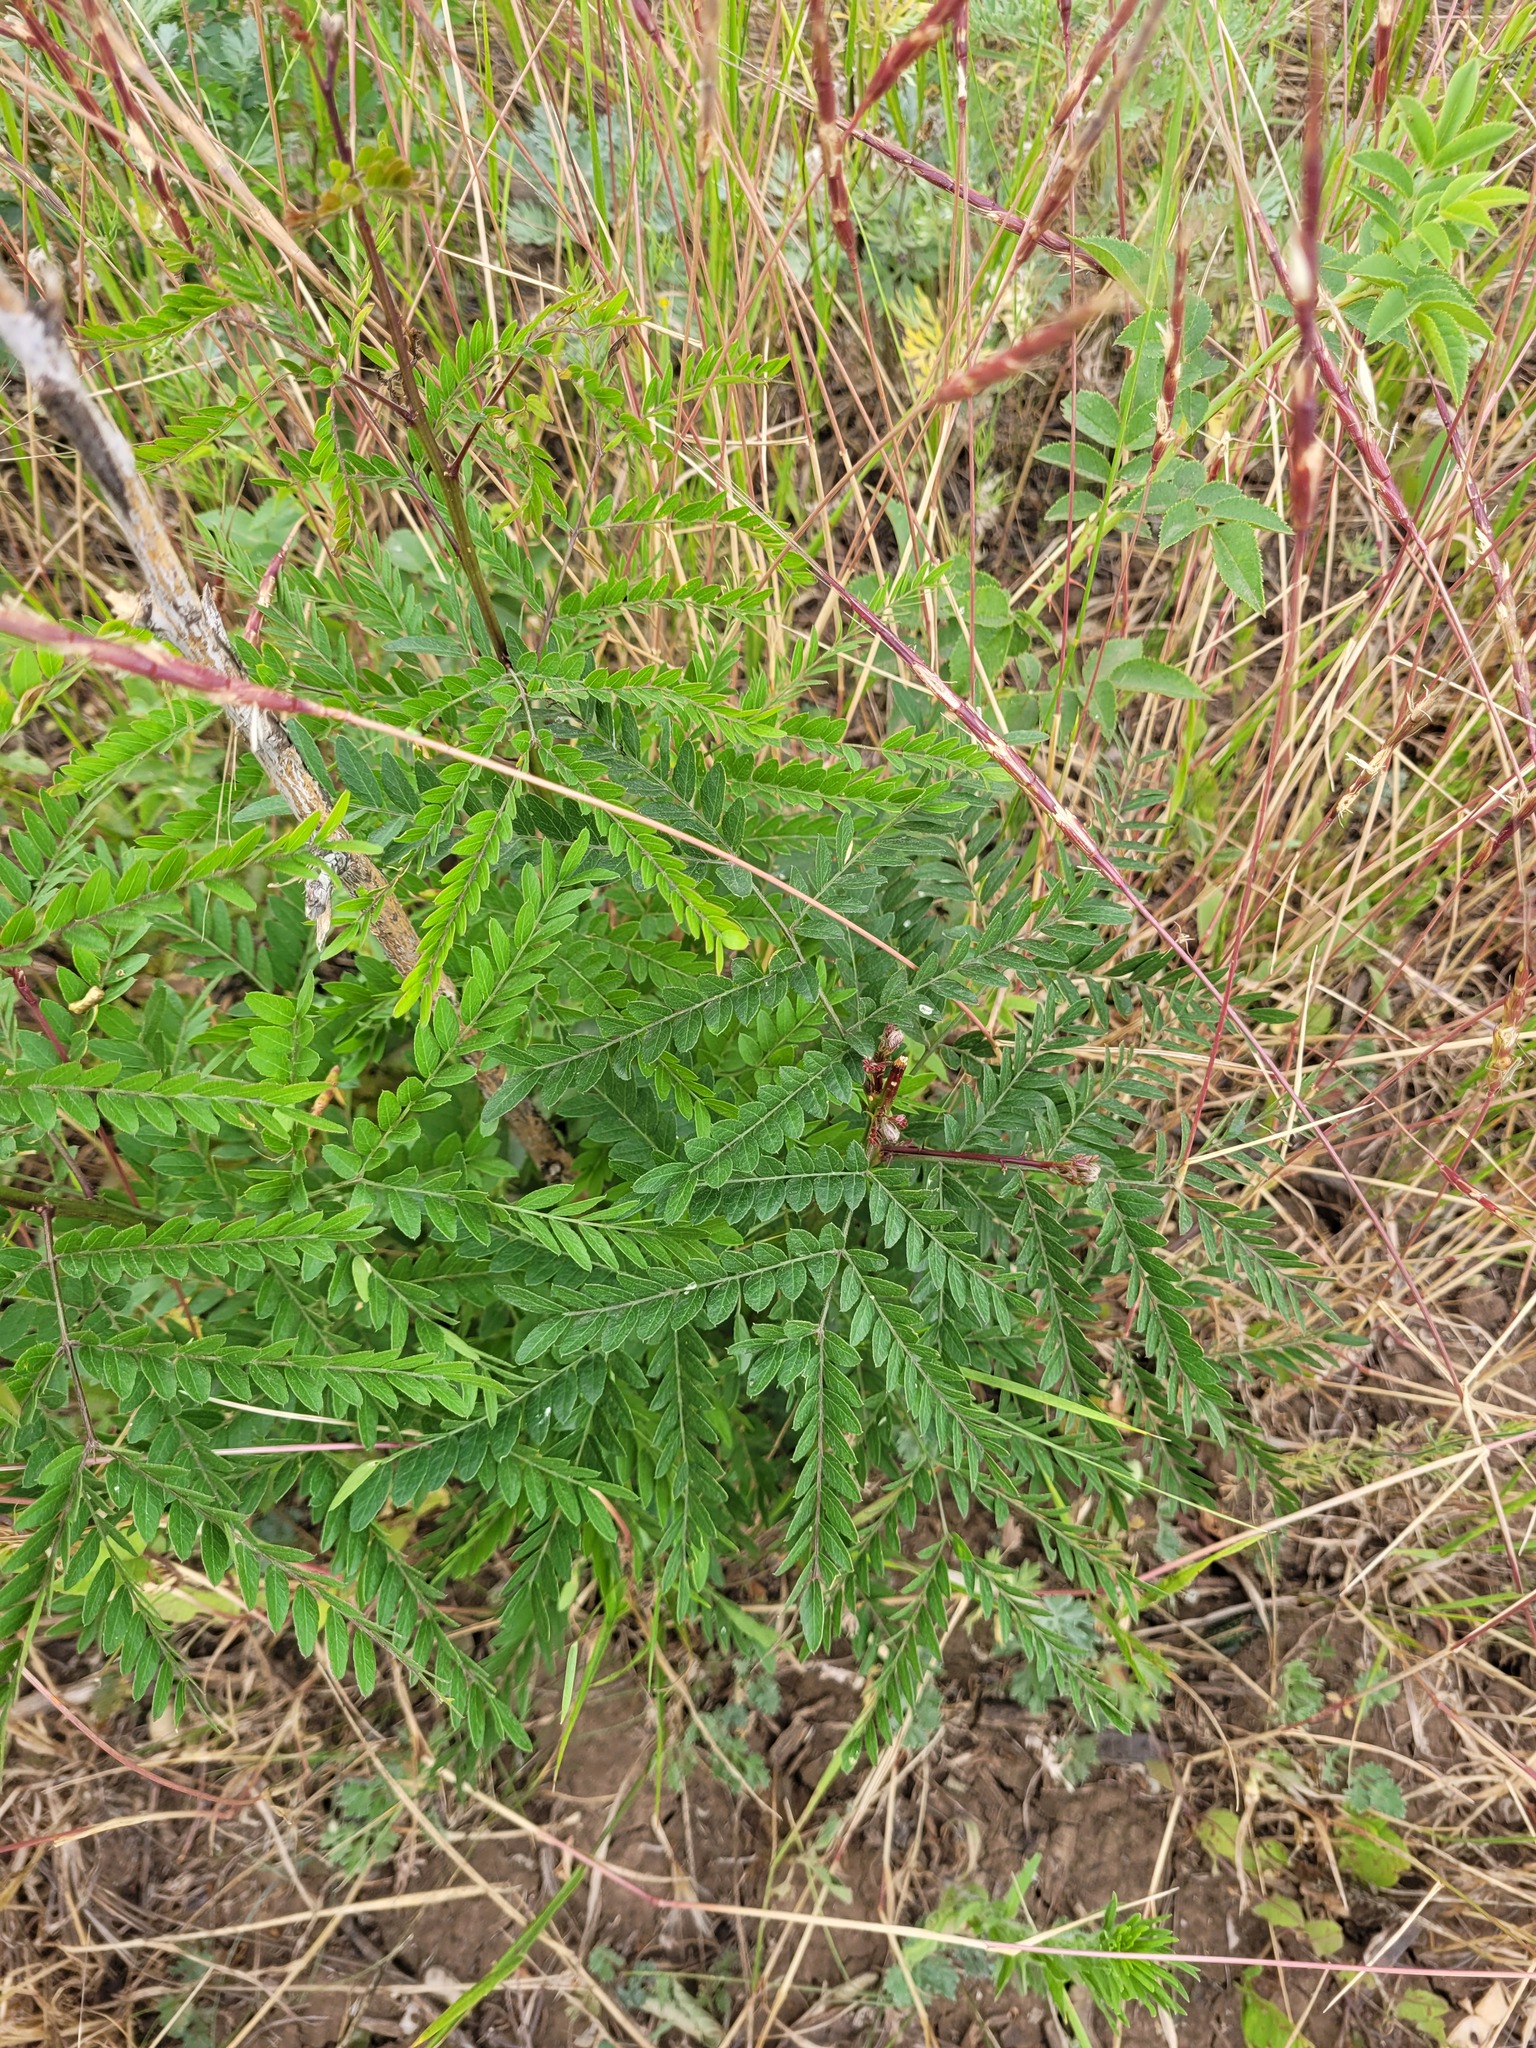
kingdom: Plantae
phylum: Tracheophyta
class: Magnoliopsida
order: Fabales
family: Fabaceae
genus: Gleditsia
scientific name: Gleditsia triacanthos
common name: Common honeylocust
